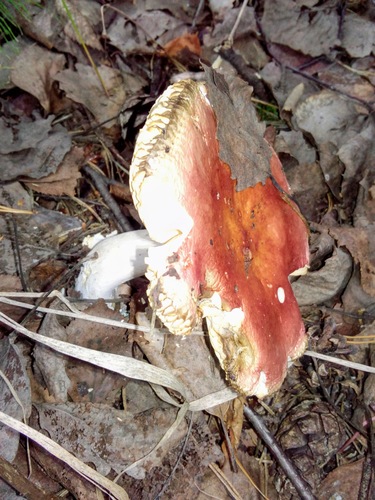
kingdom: Fungi
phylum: Basidiomycota
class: Agaricomycetes
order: Russulales
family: Russulaceae
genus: Russula
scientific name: Russula paludosa
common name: Hintapink
